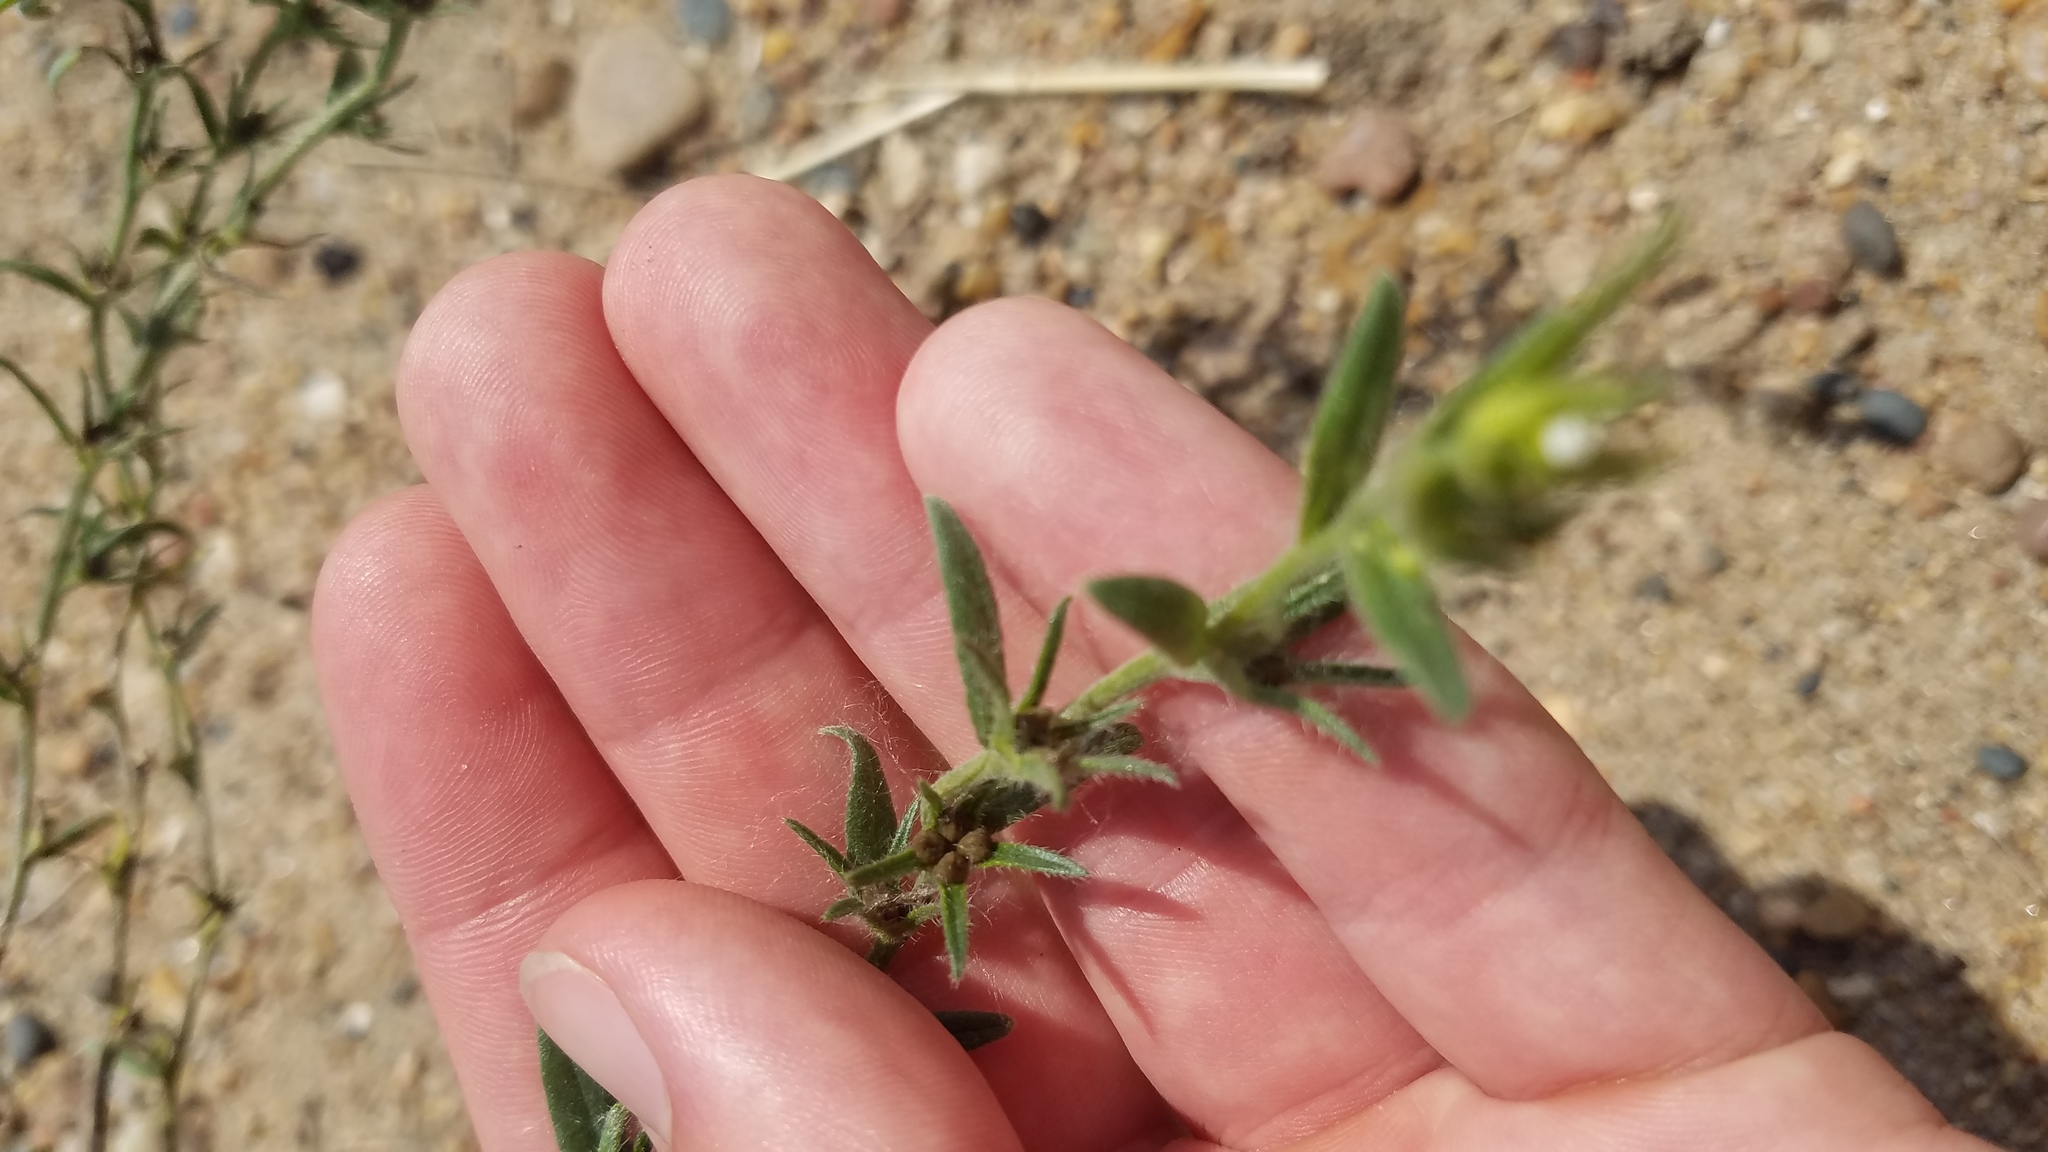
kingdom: Plantae
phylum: Tracheophyta
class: Magnoliopsida
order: Boraginales
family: Boraginaceae
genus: Buglossoides
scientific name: Buglossoides arvensis
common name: Corn gromwell
